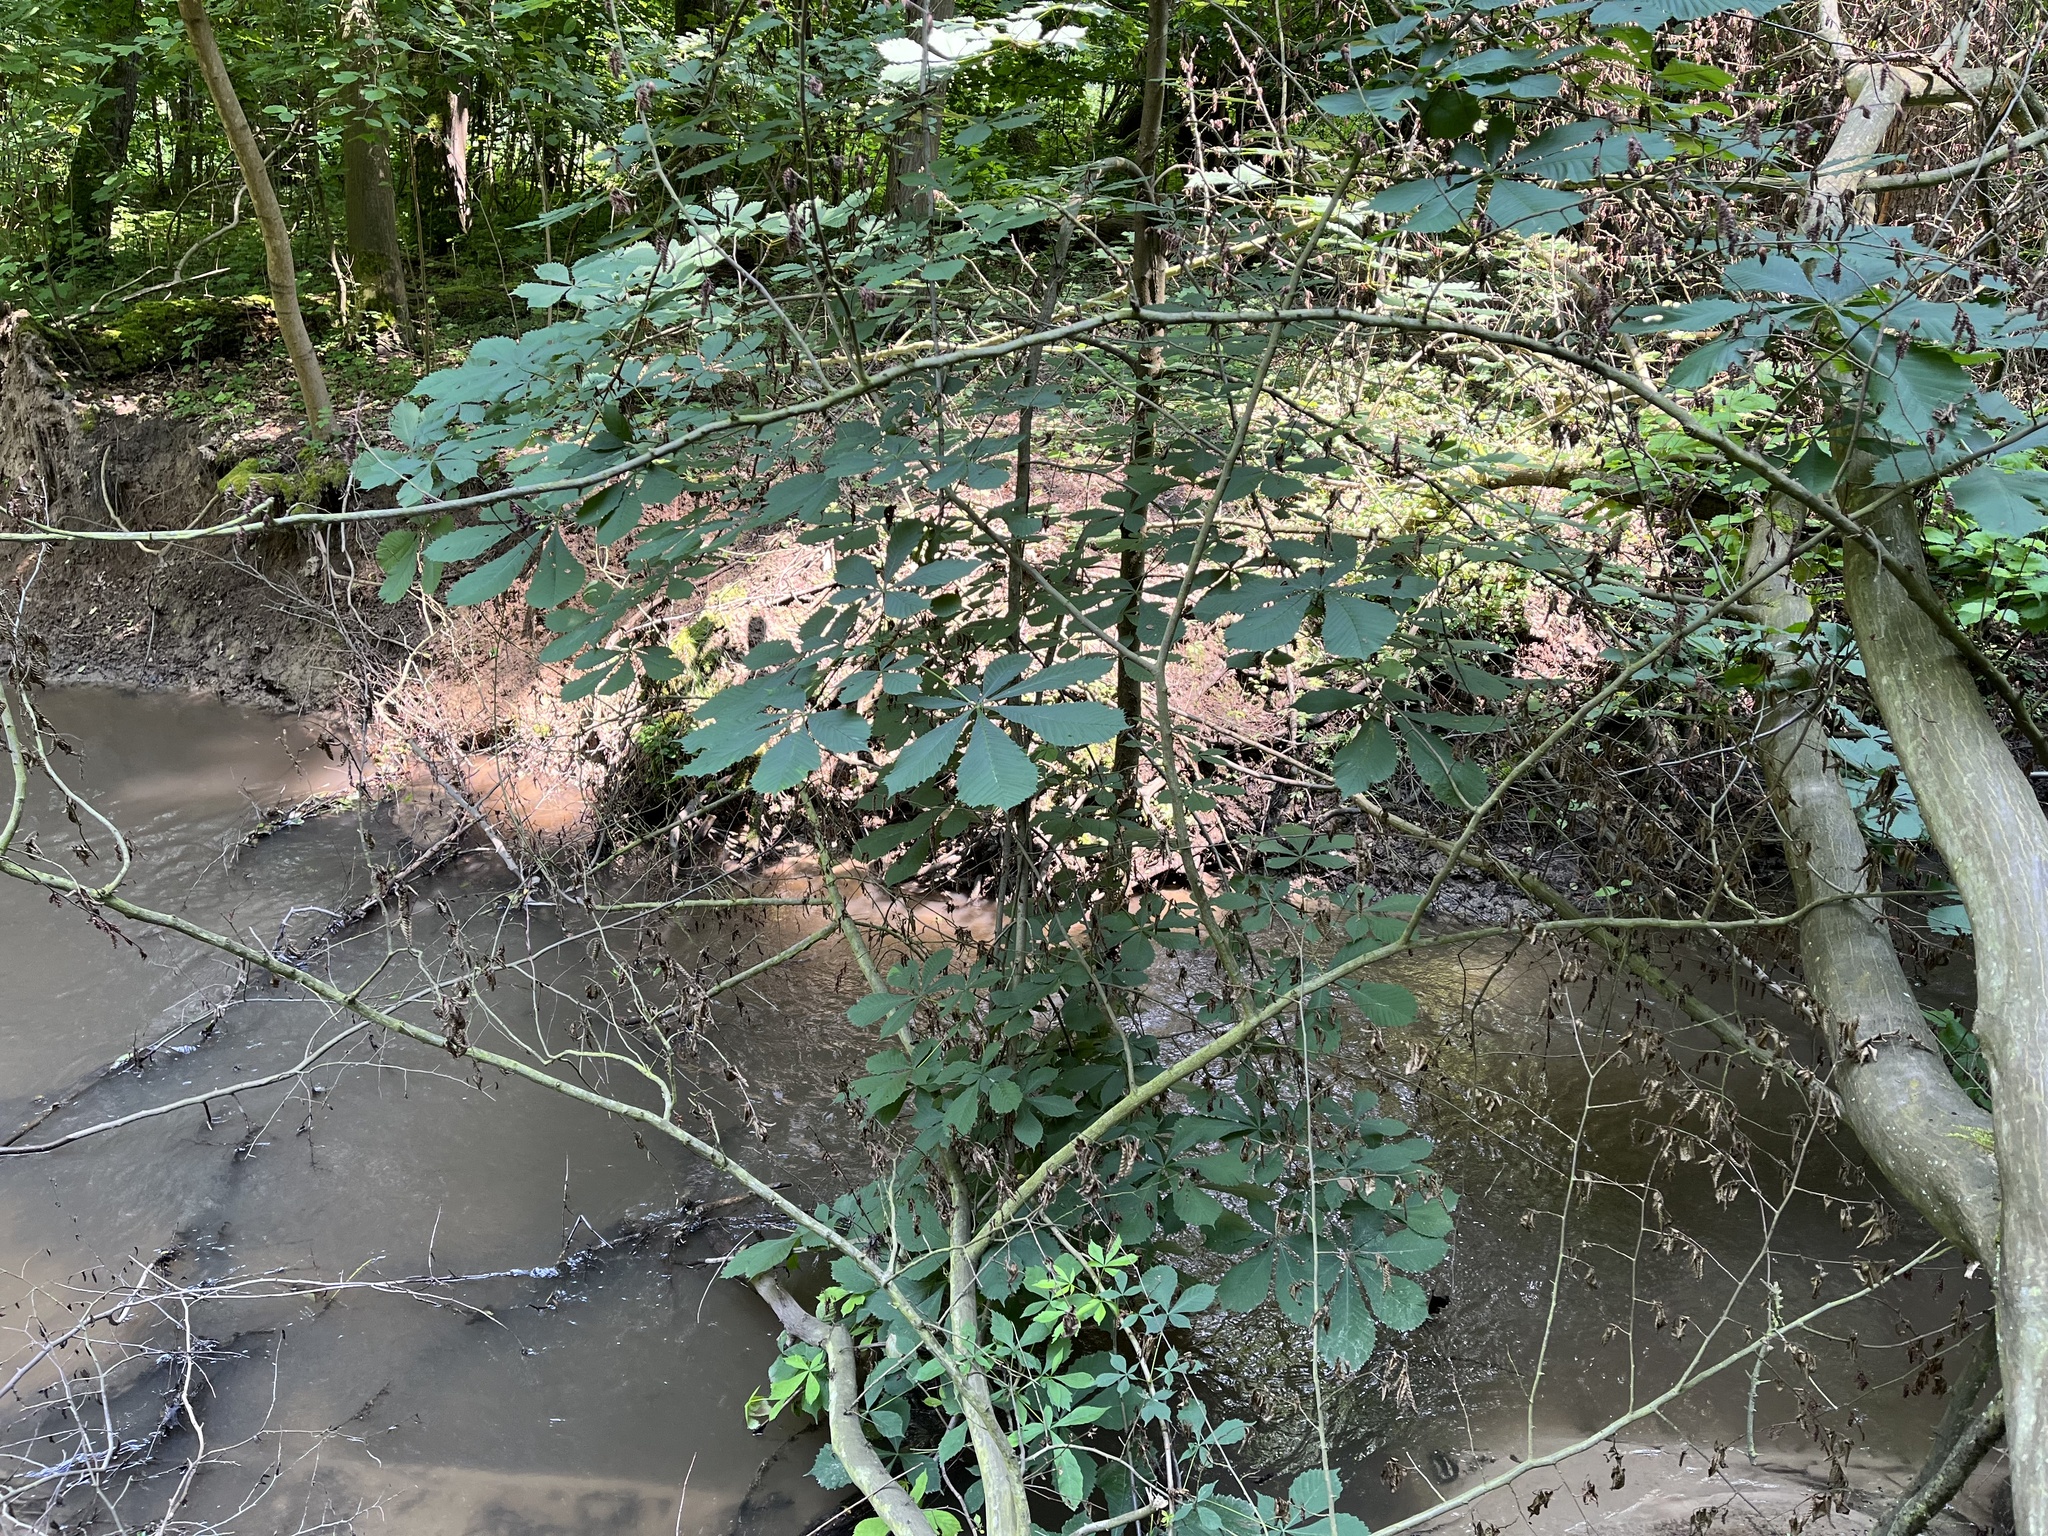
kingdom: Plantae
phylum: Tracheophyta
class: Magnoliopsida
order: Sapindales
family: Sapindaceae
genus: Aesculus
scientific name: Aesculus hippocastanum
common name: Horse-chestnut
